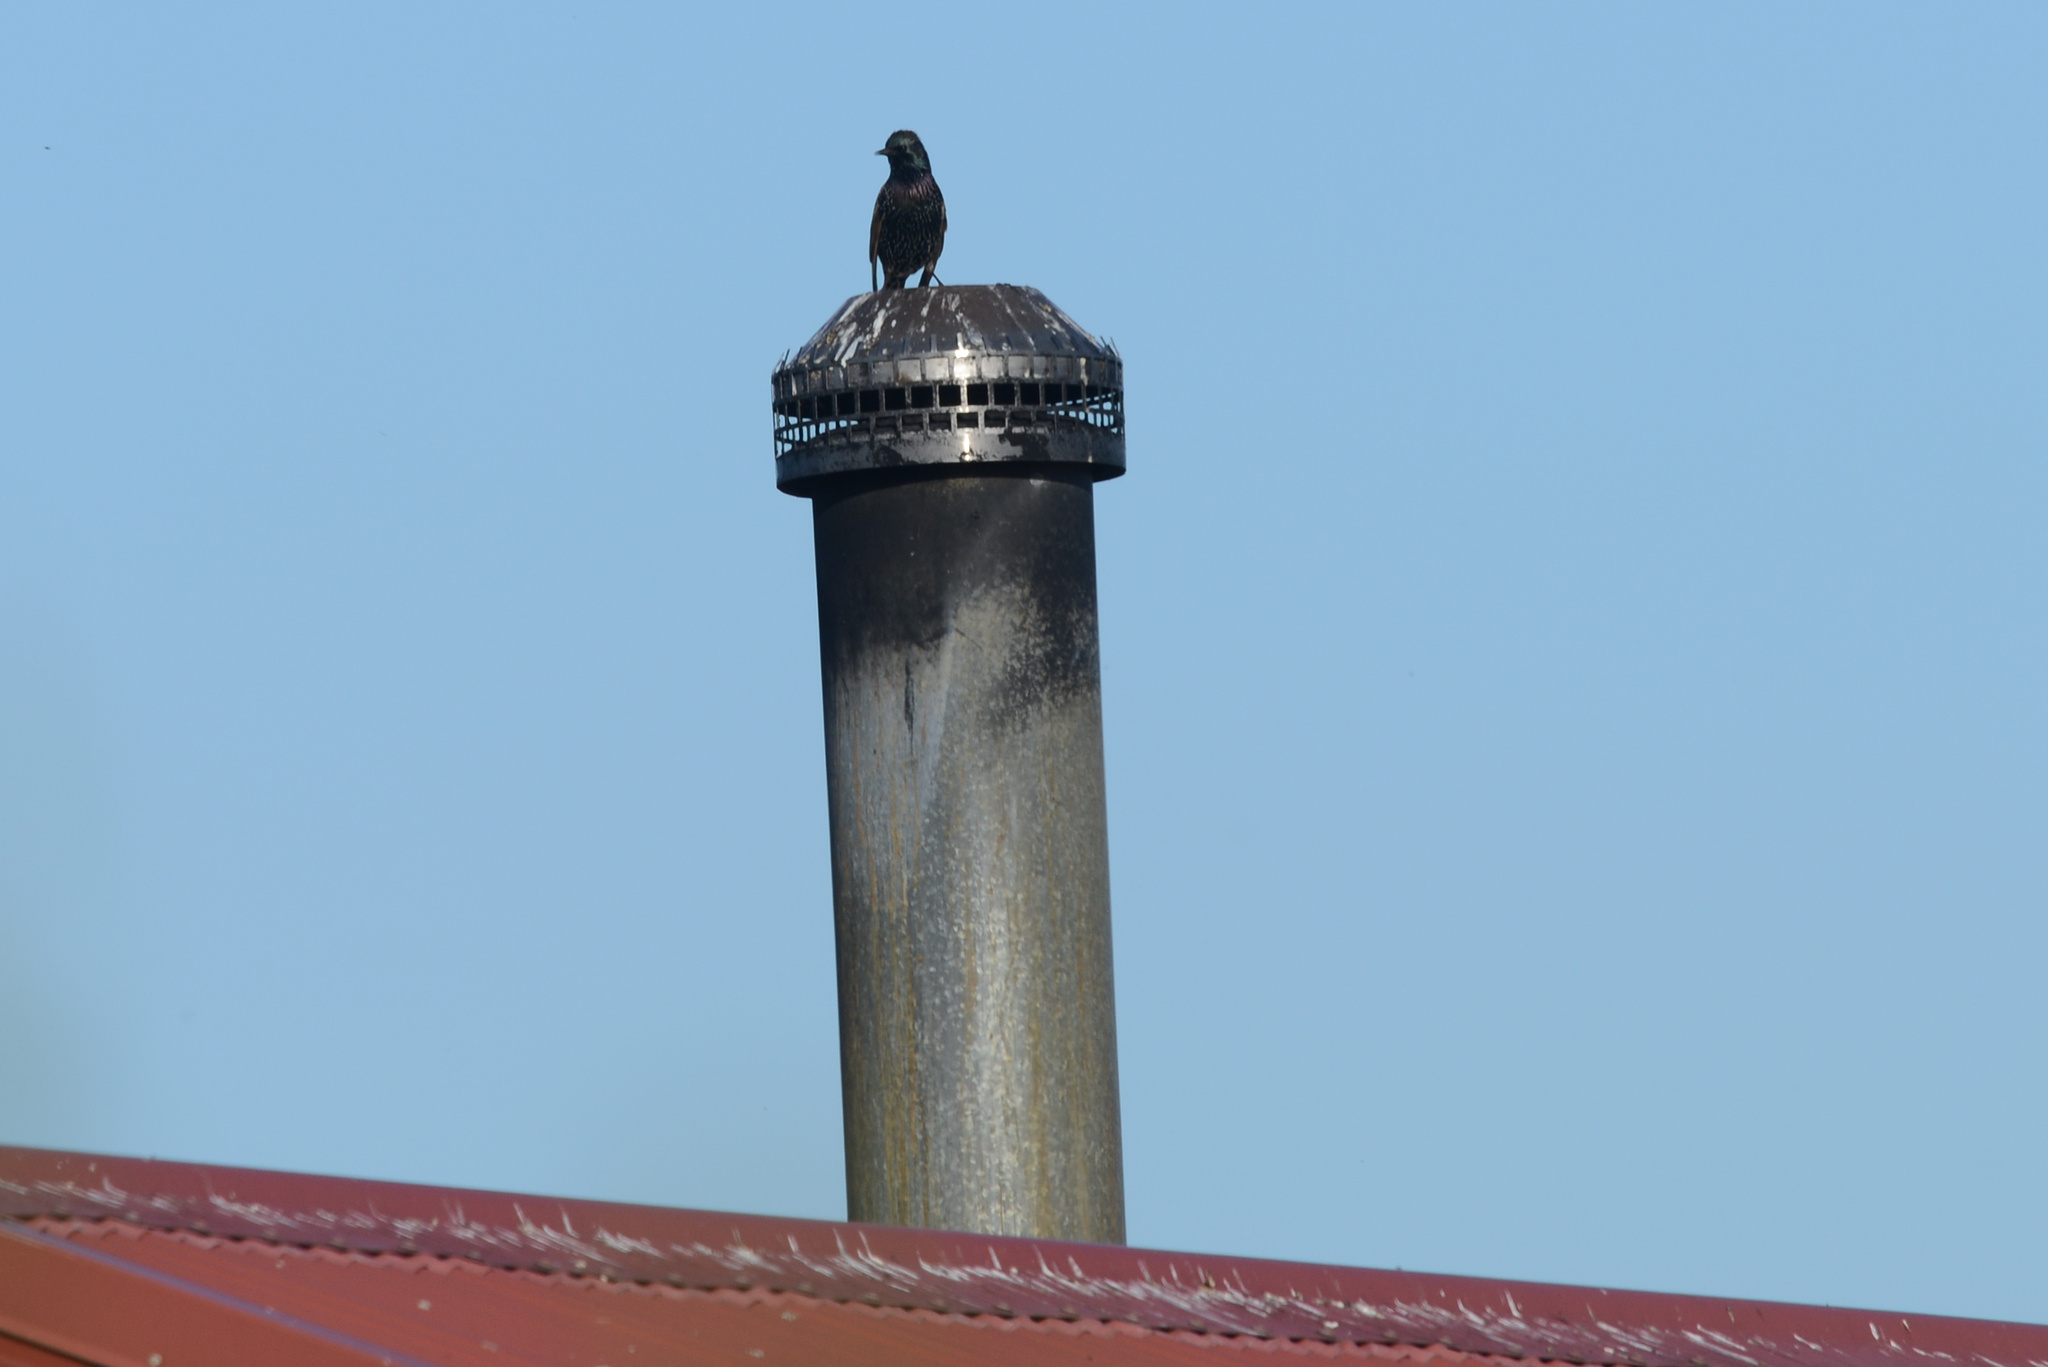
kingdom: Animalia
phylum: Chordata
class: Aves
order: Passeriformes
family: Sturnidae
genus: Sturnus
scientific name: Sturnus vulgaris
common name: Common starling
